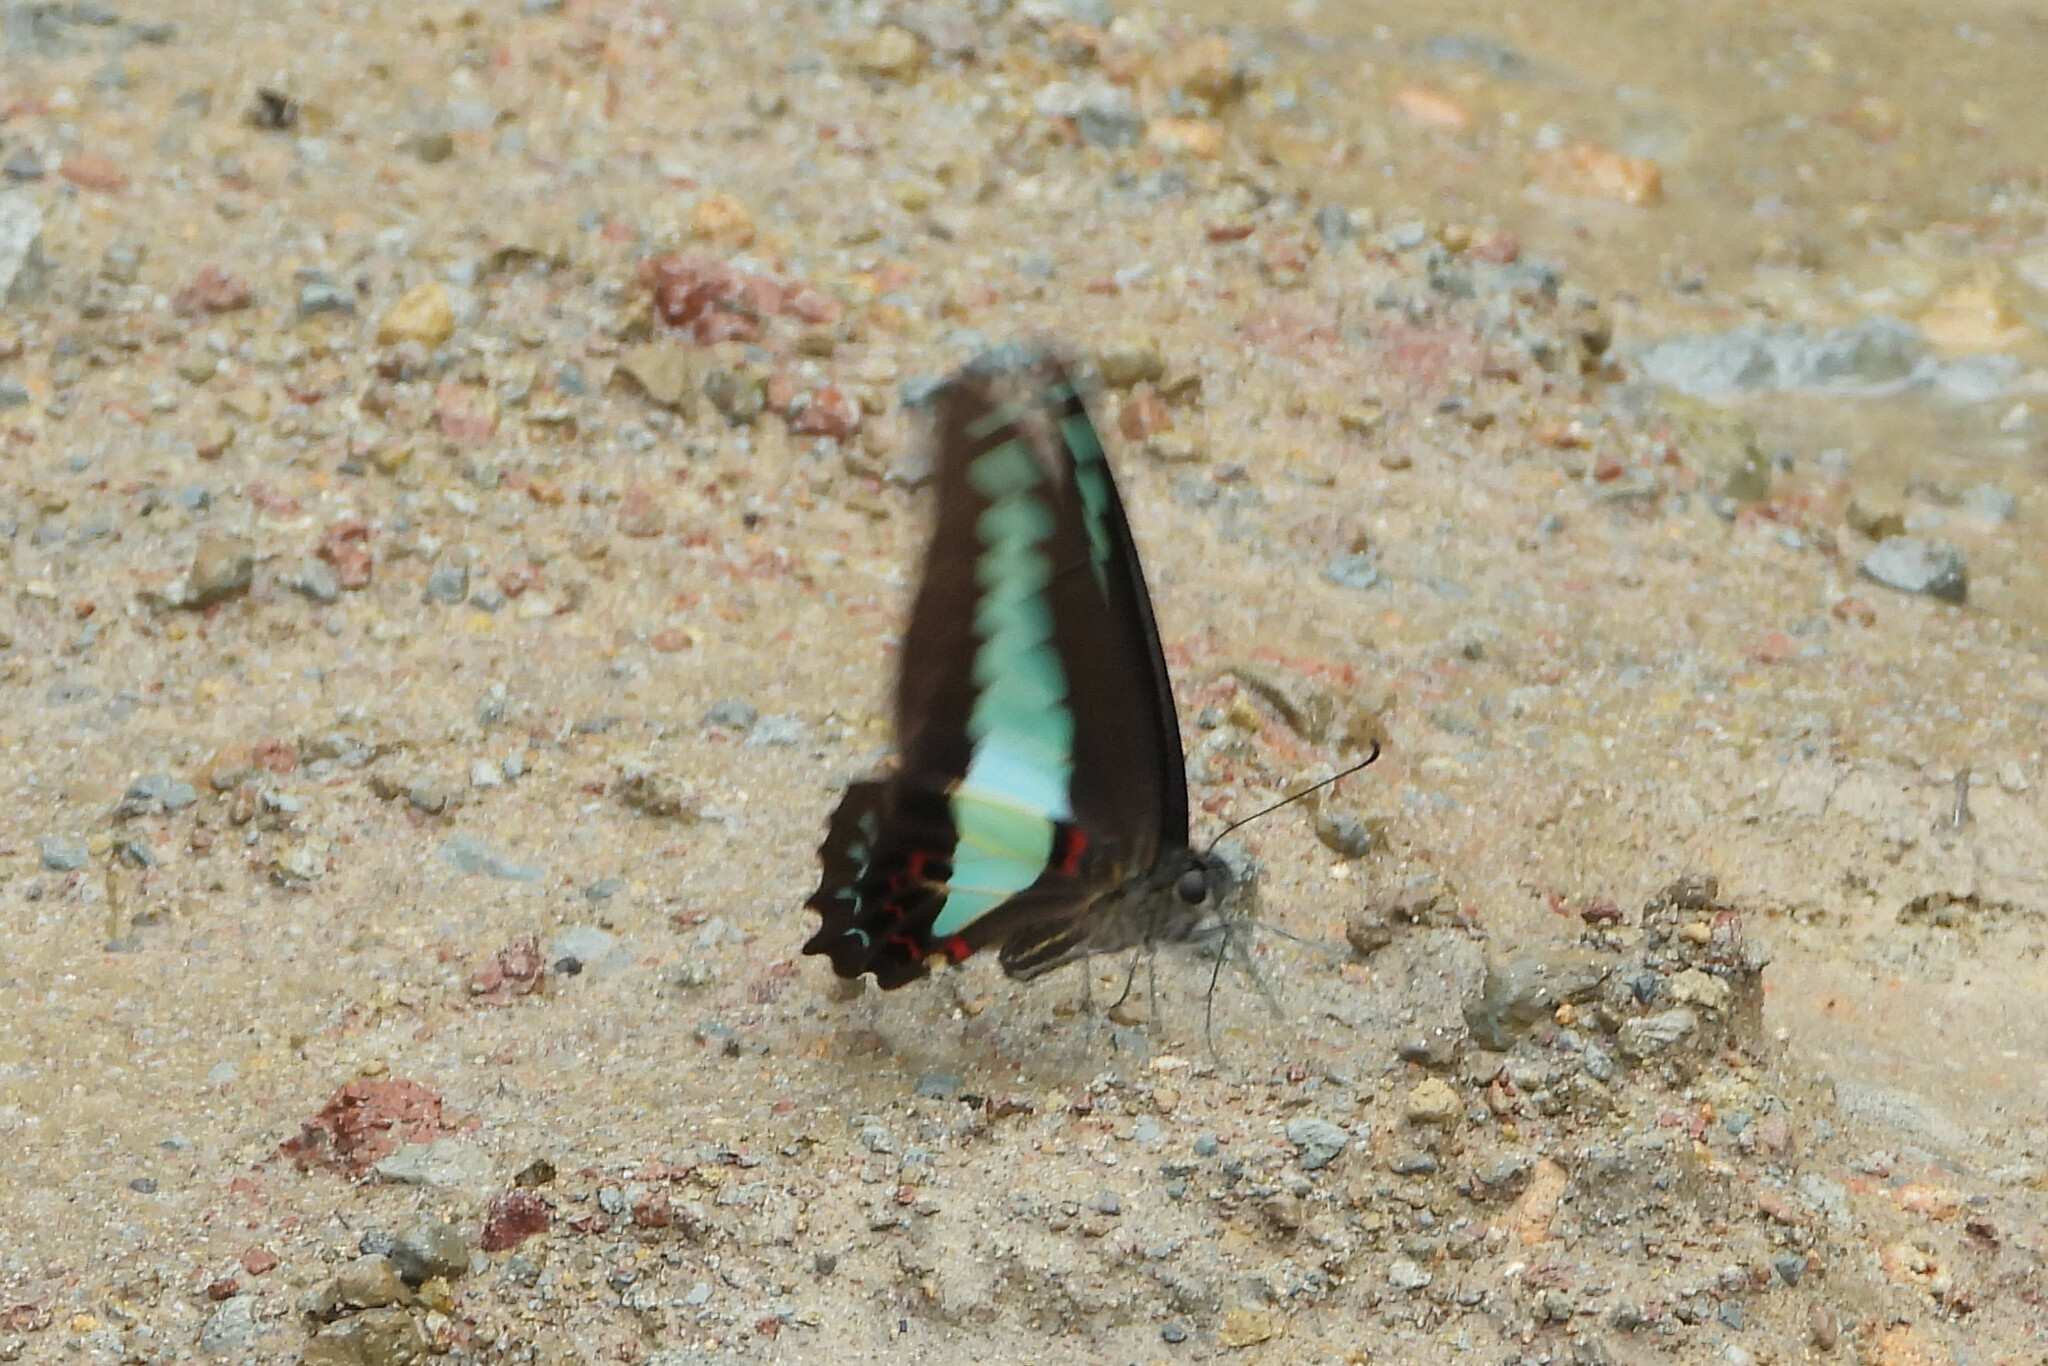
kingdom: Fungi
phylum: Ascomycota
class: Sordariomycetes
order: Microascales
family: Microascaceae
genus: Graphium
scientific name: Graphium sarpedon
